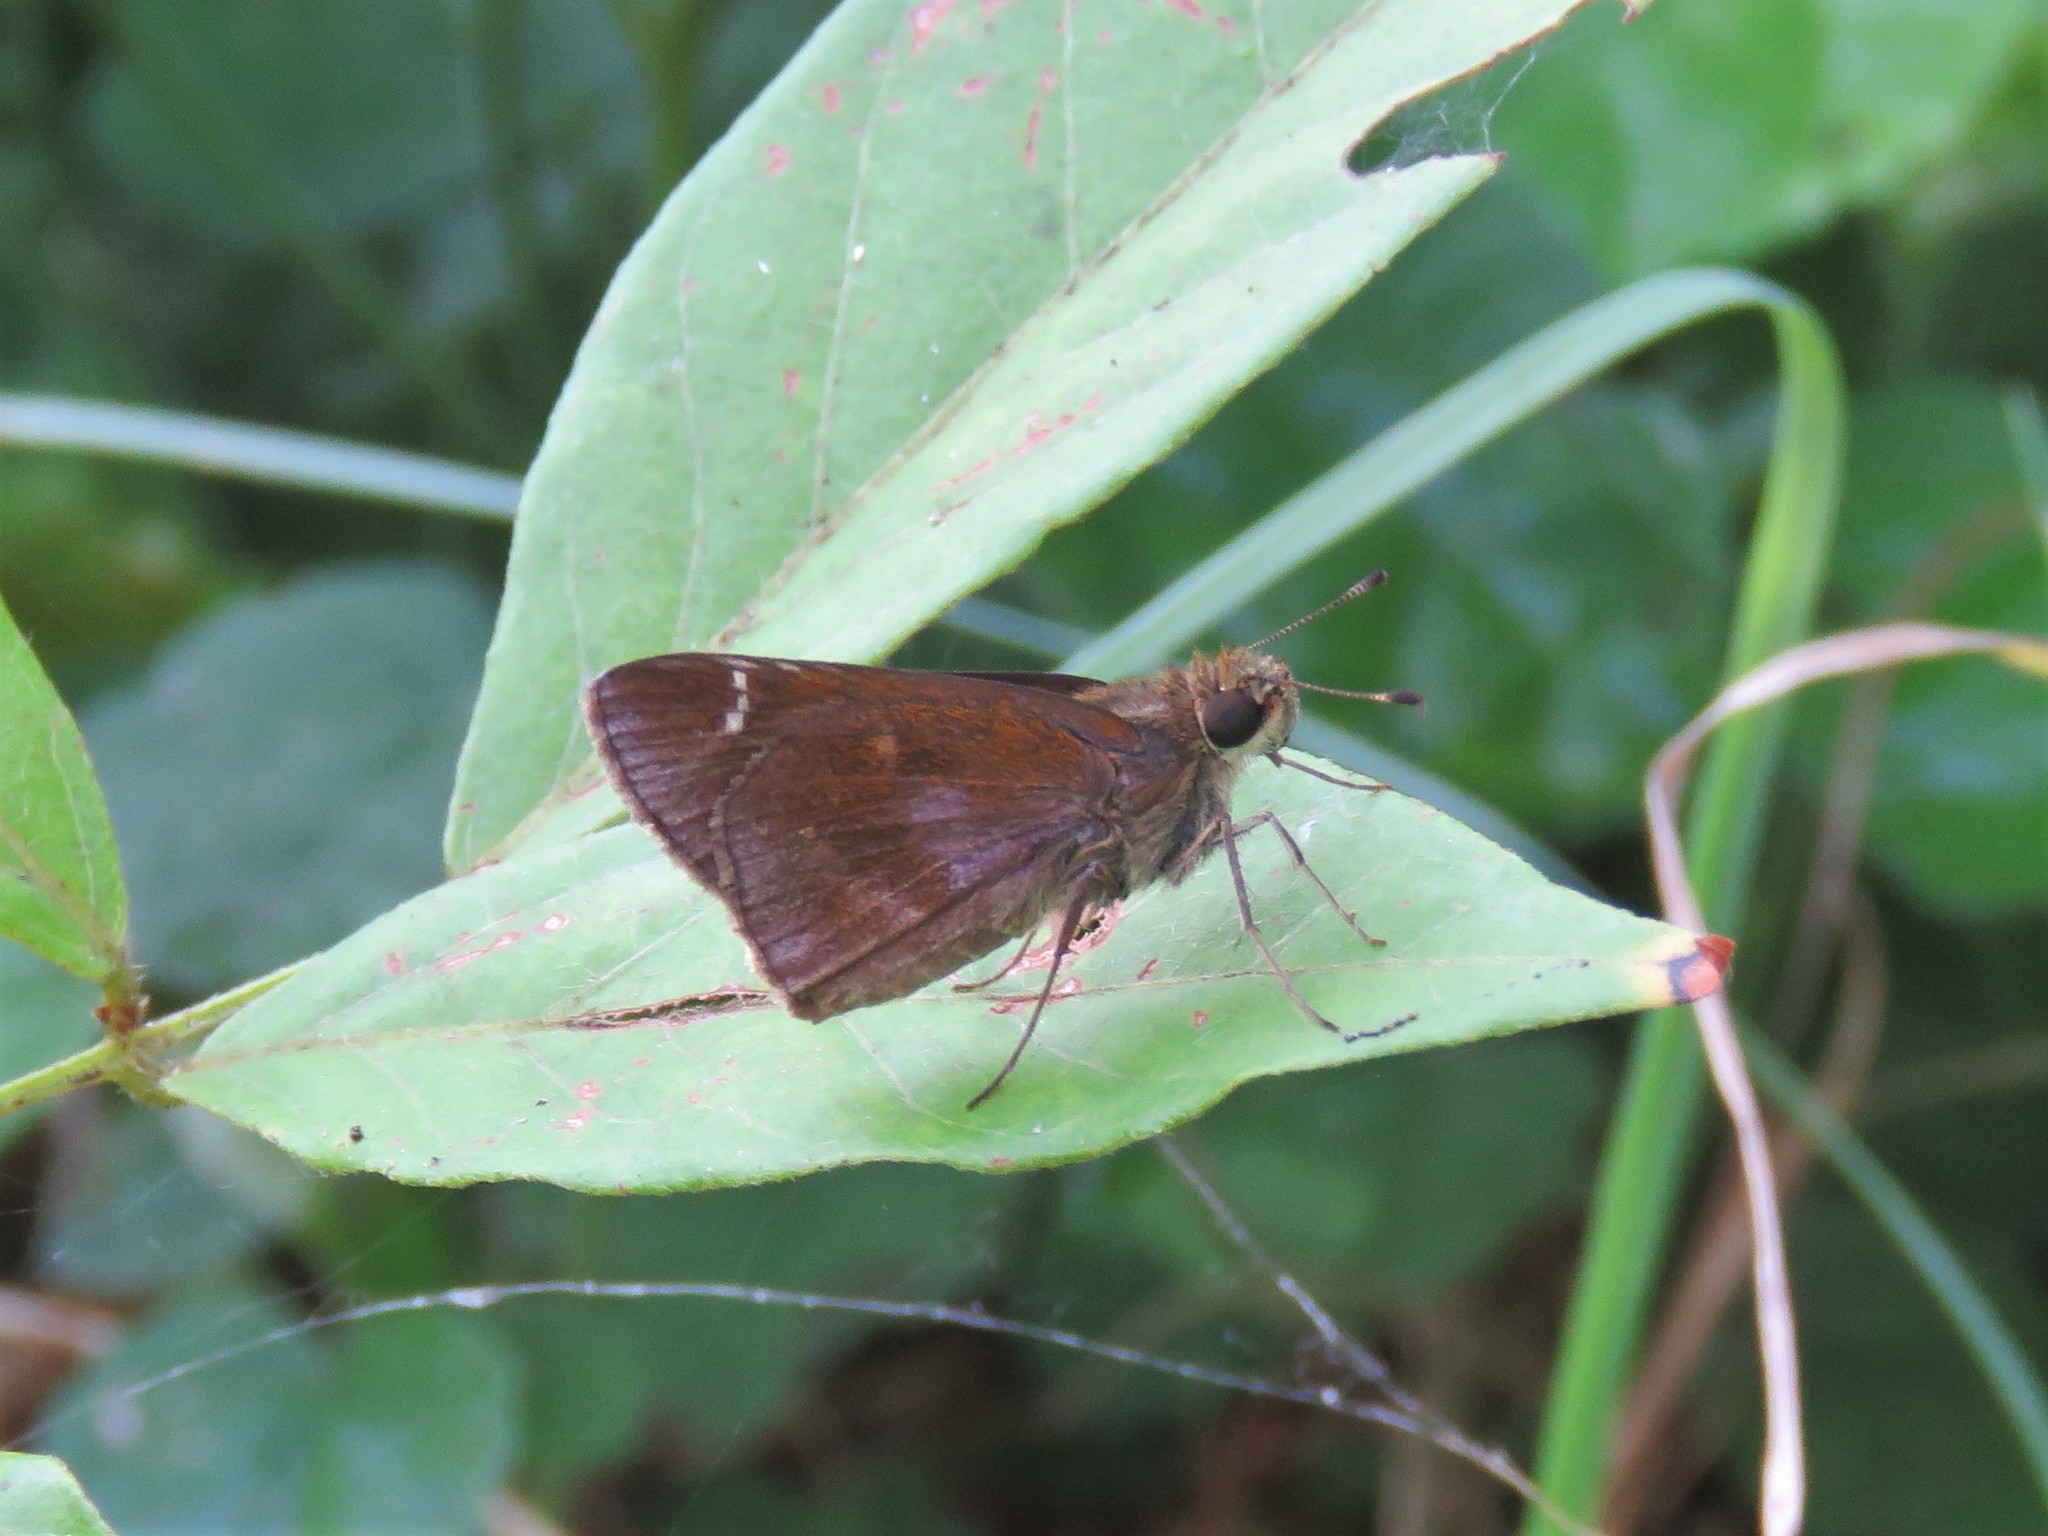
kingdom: Animalia
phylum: Arthropoda
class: Insecta
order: Lepidoptera
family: Hesperiidae
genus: Lerema
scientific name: Lerema accius
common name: Clouded skipper
